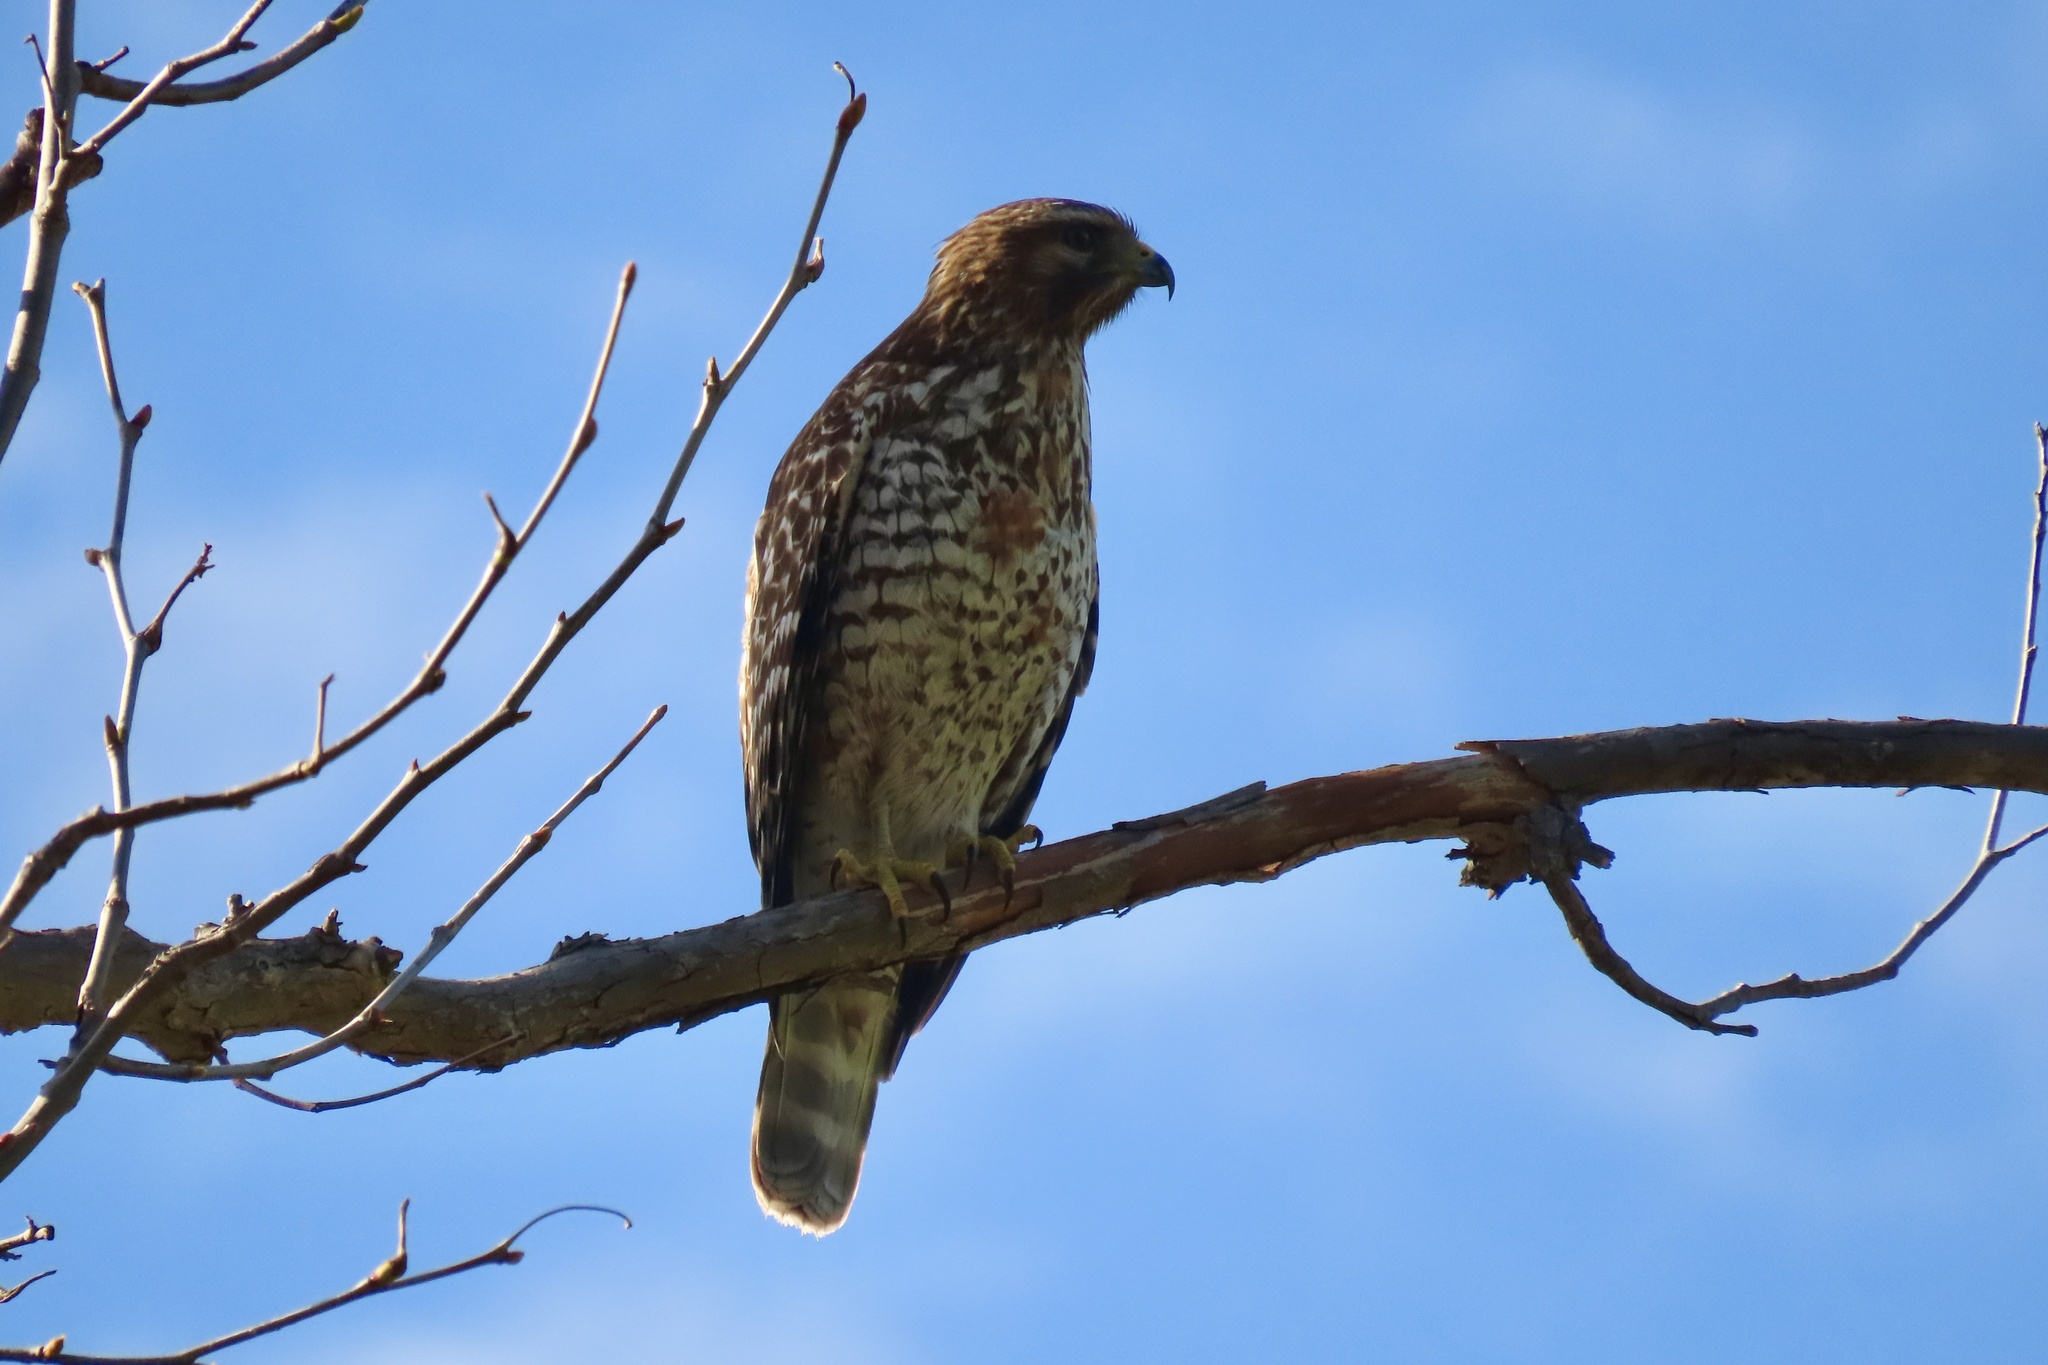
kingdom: Animalia
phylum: Chordata
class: Aves
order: Accipitriformes
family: Accipitridae
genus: Buteo
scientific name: Buteo lineatus
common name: Red-shouldered hawk
